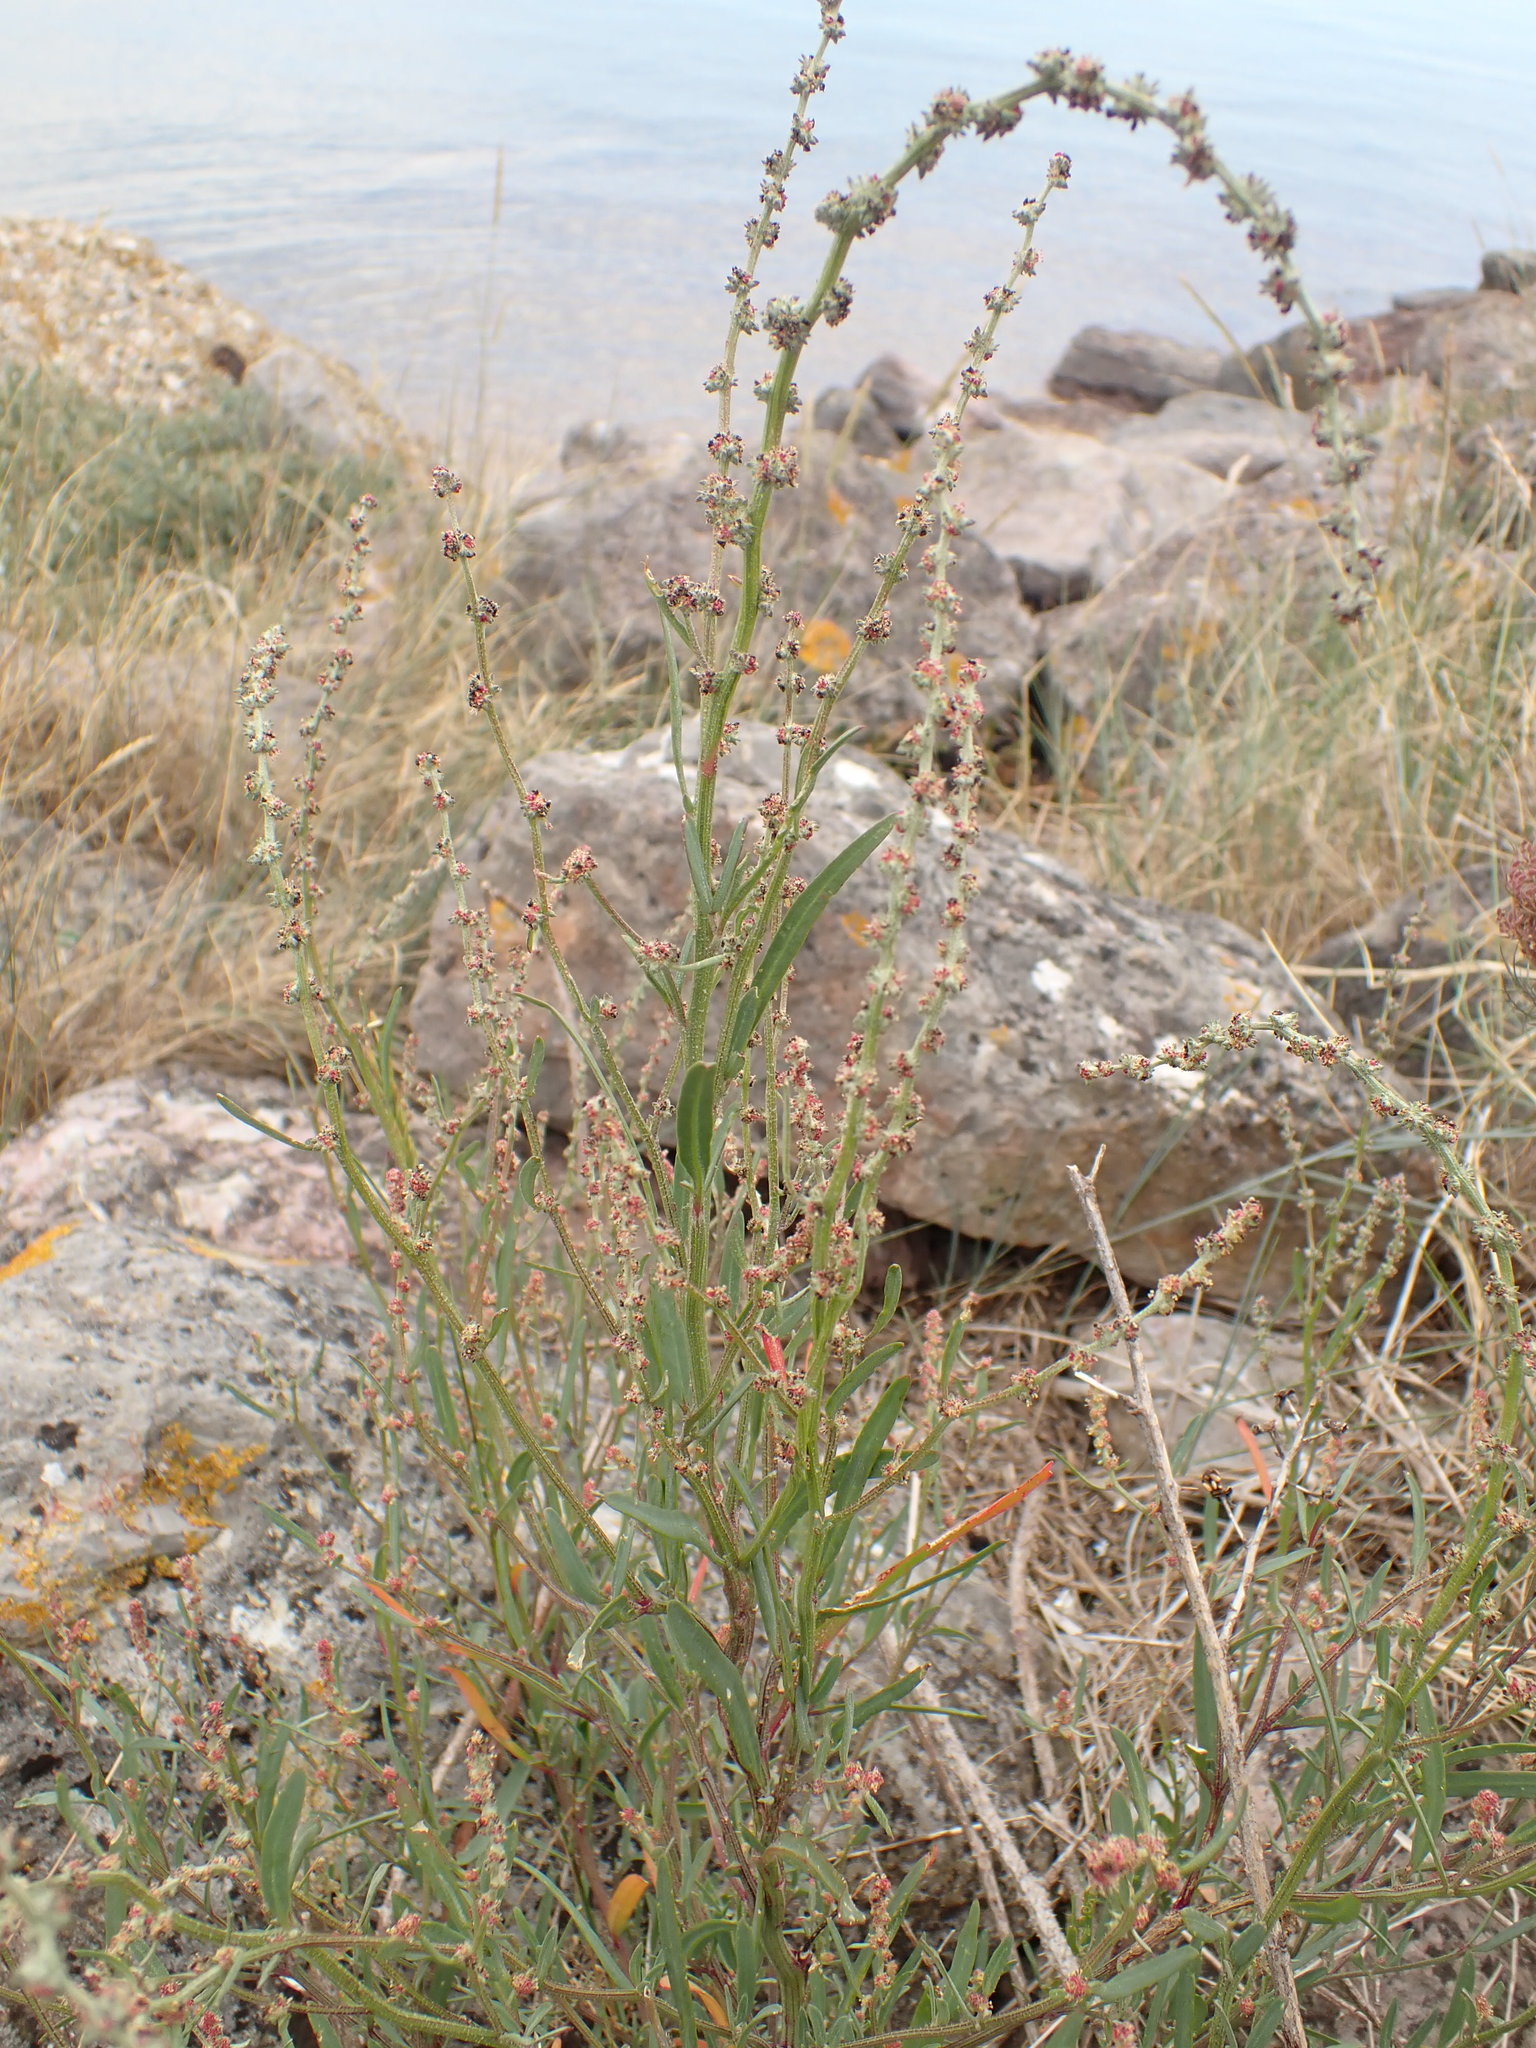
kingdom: Plantae
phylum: Tracheophyta
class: Magnoliopsida
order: Caryophyllales
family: Amaranthaceae
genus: Atriplex
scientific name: Atriplex littoralis
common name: Grass-leaved orache
